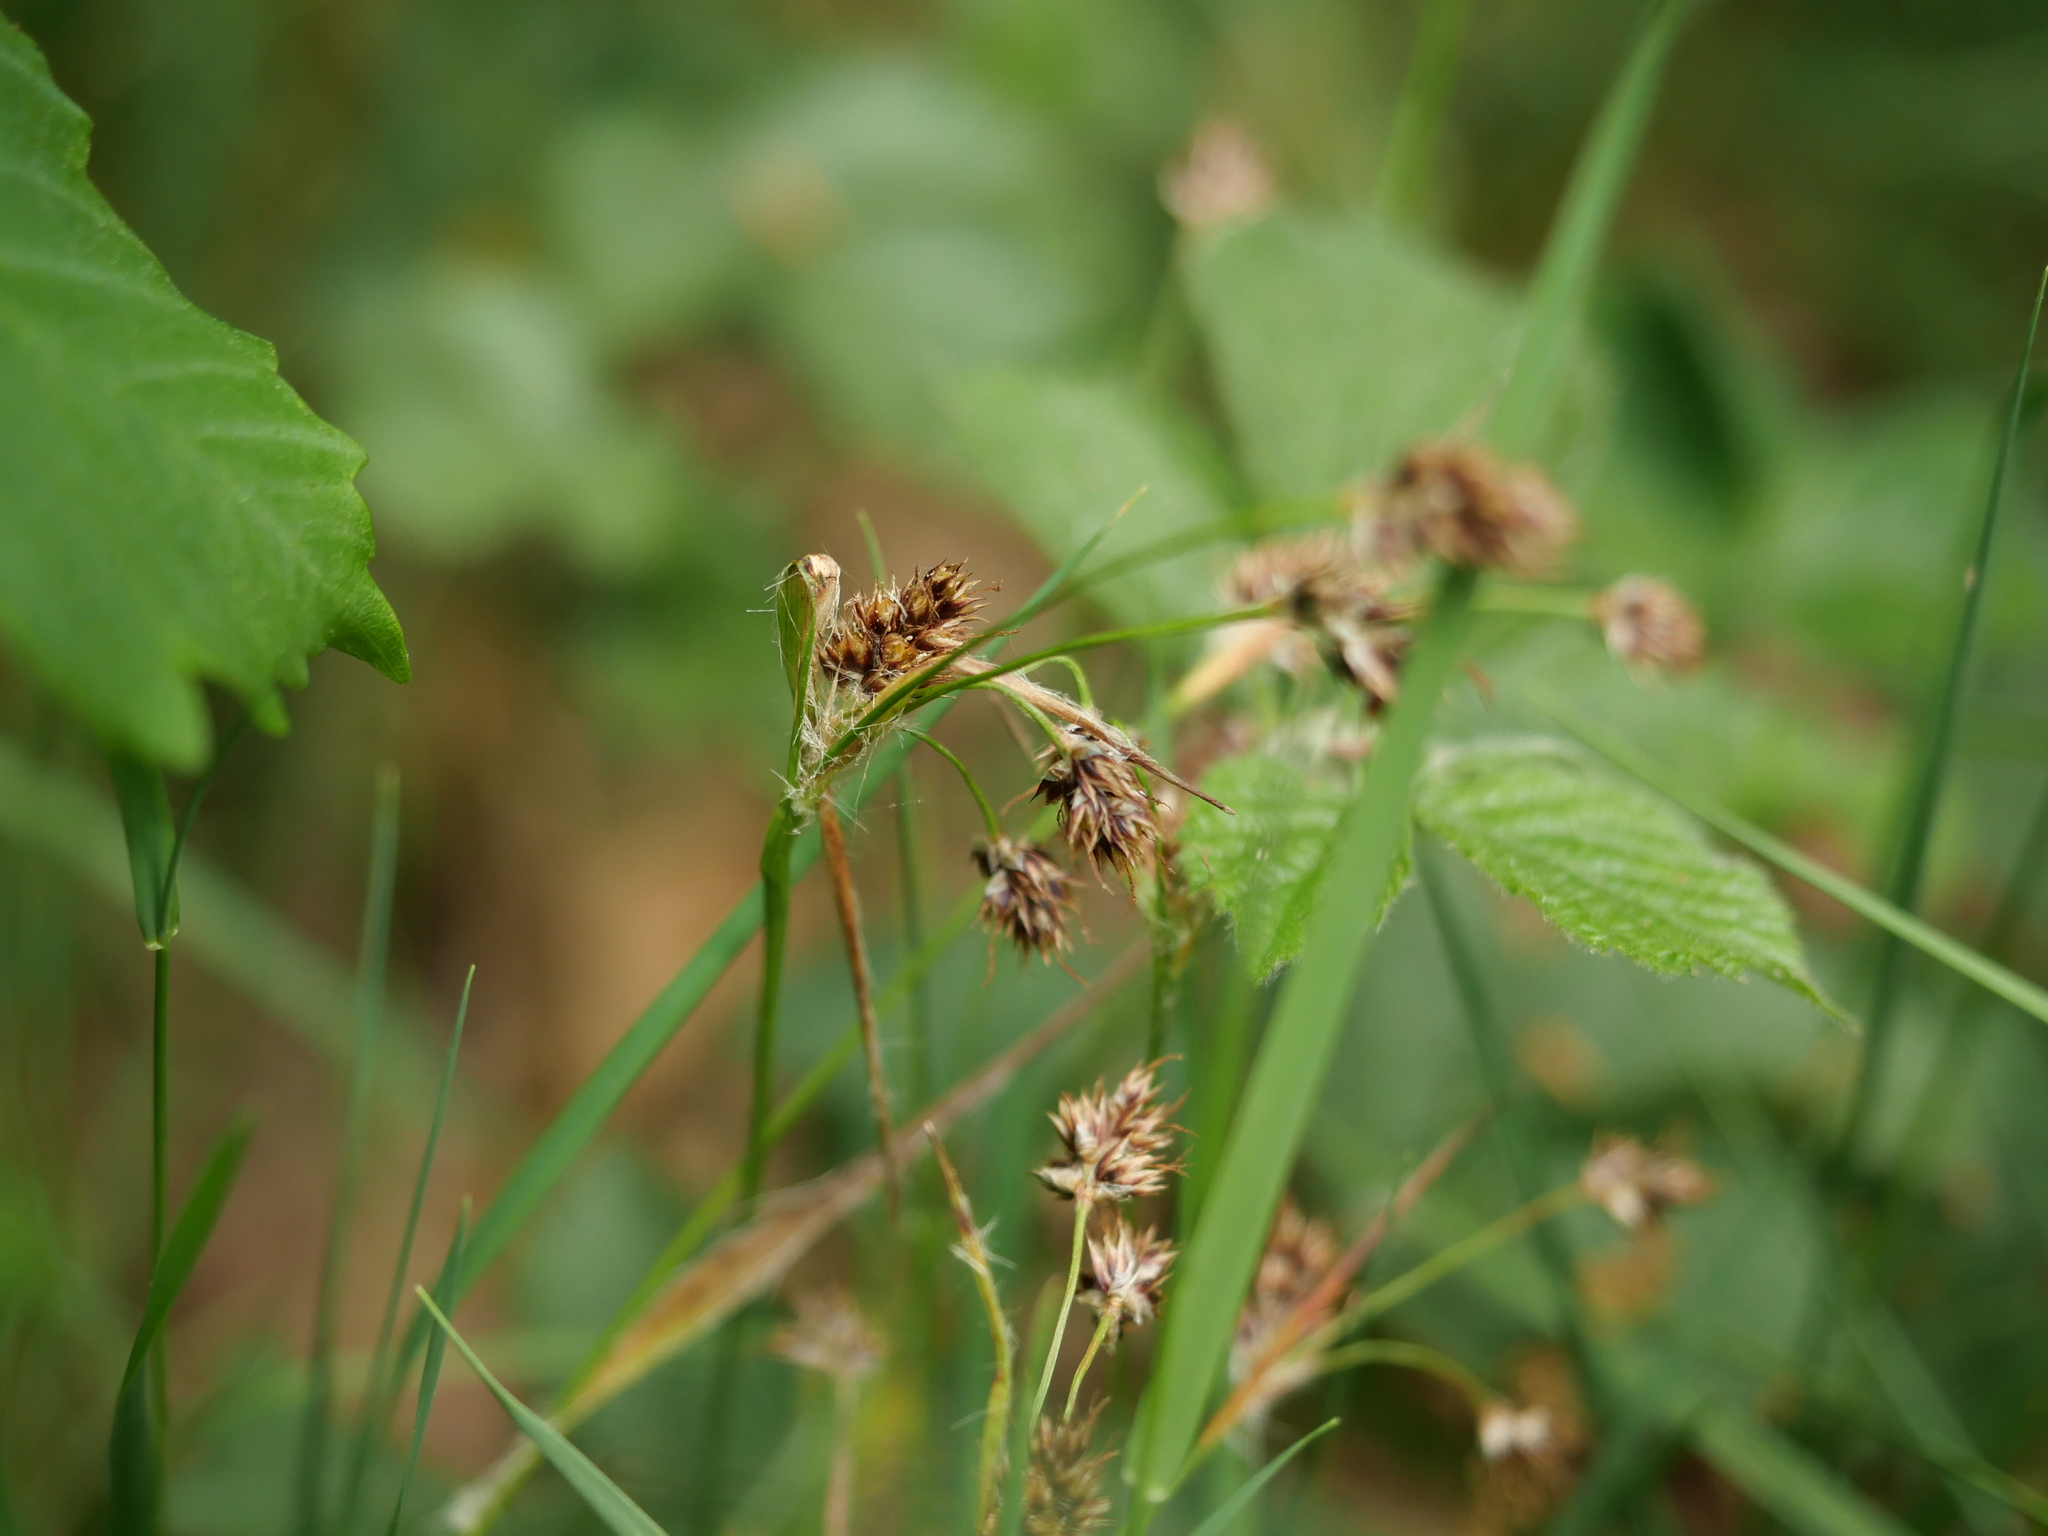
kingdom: Plantae
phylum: Tracheophyta
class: Liliopsida
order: Poales
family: Juncaceae
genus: Luzula
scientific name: Luzula campestris
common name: Field wood-rush
